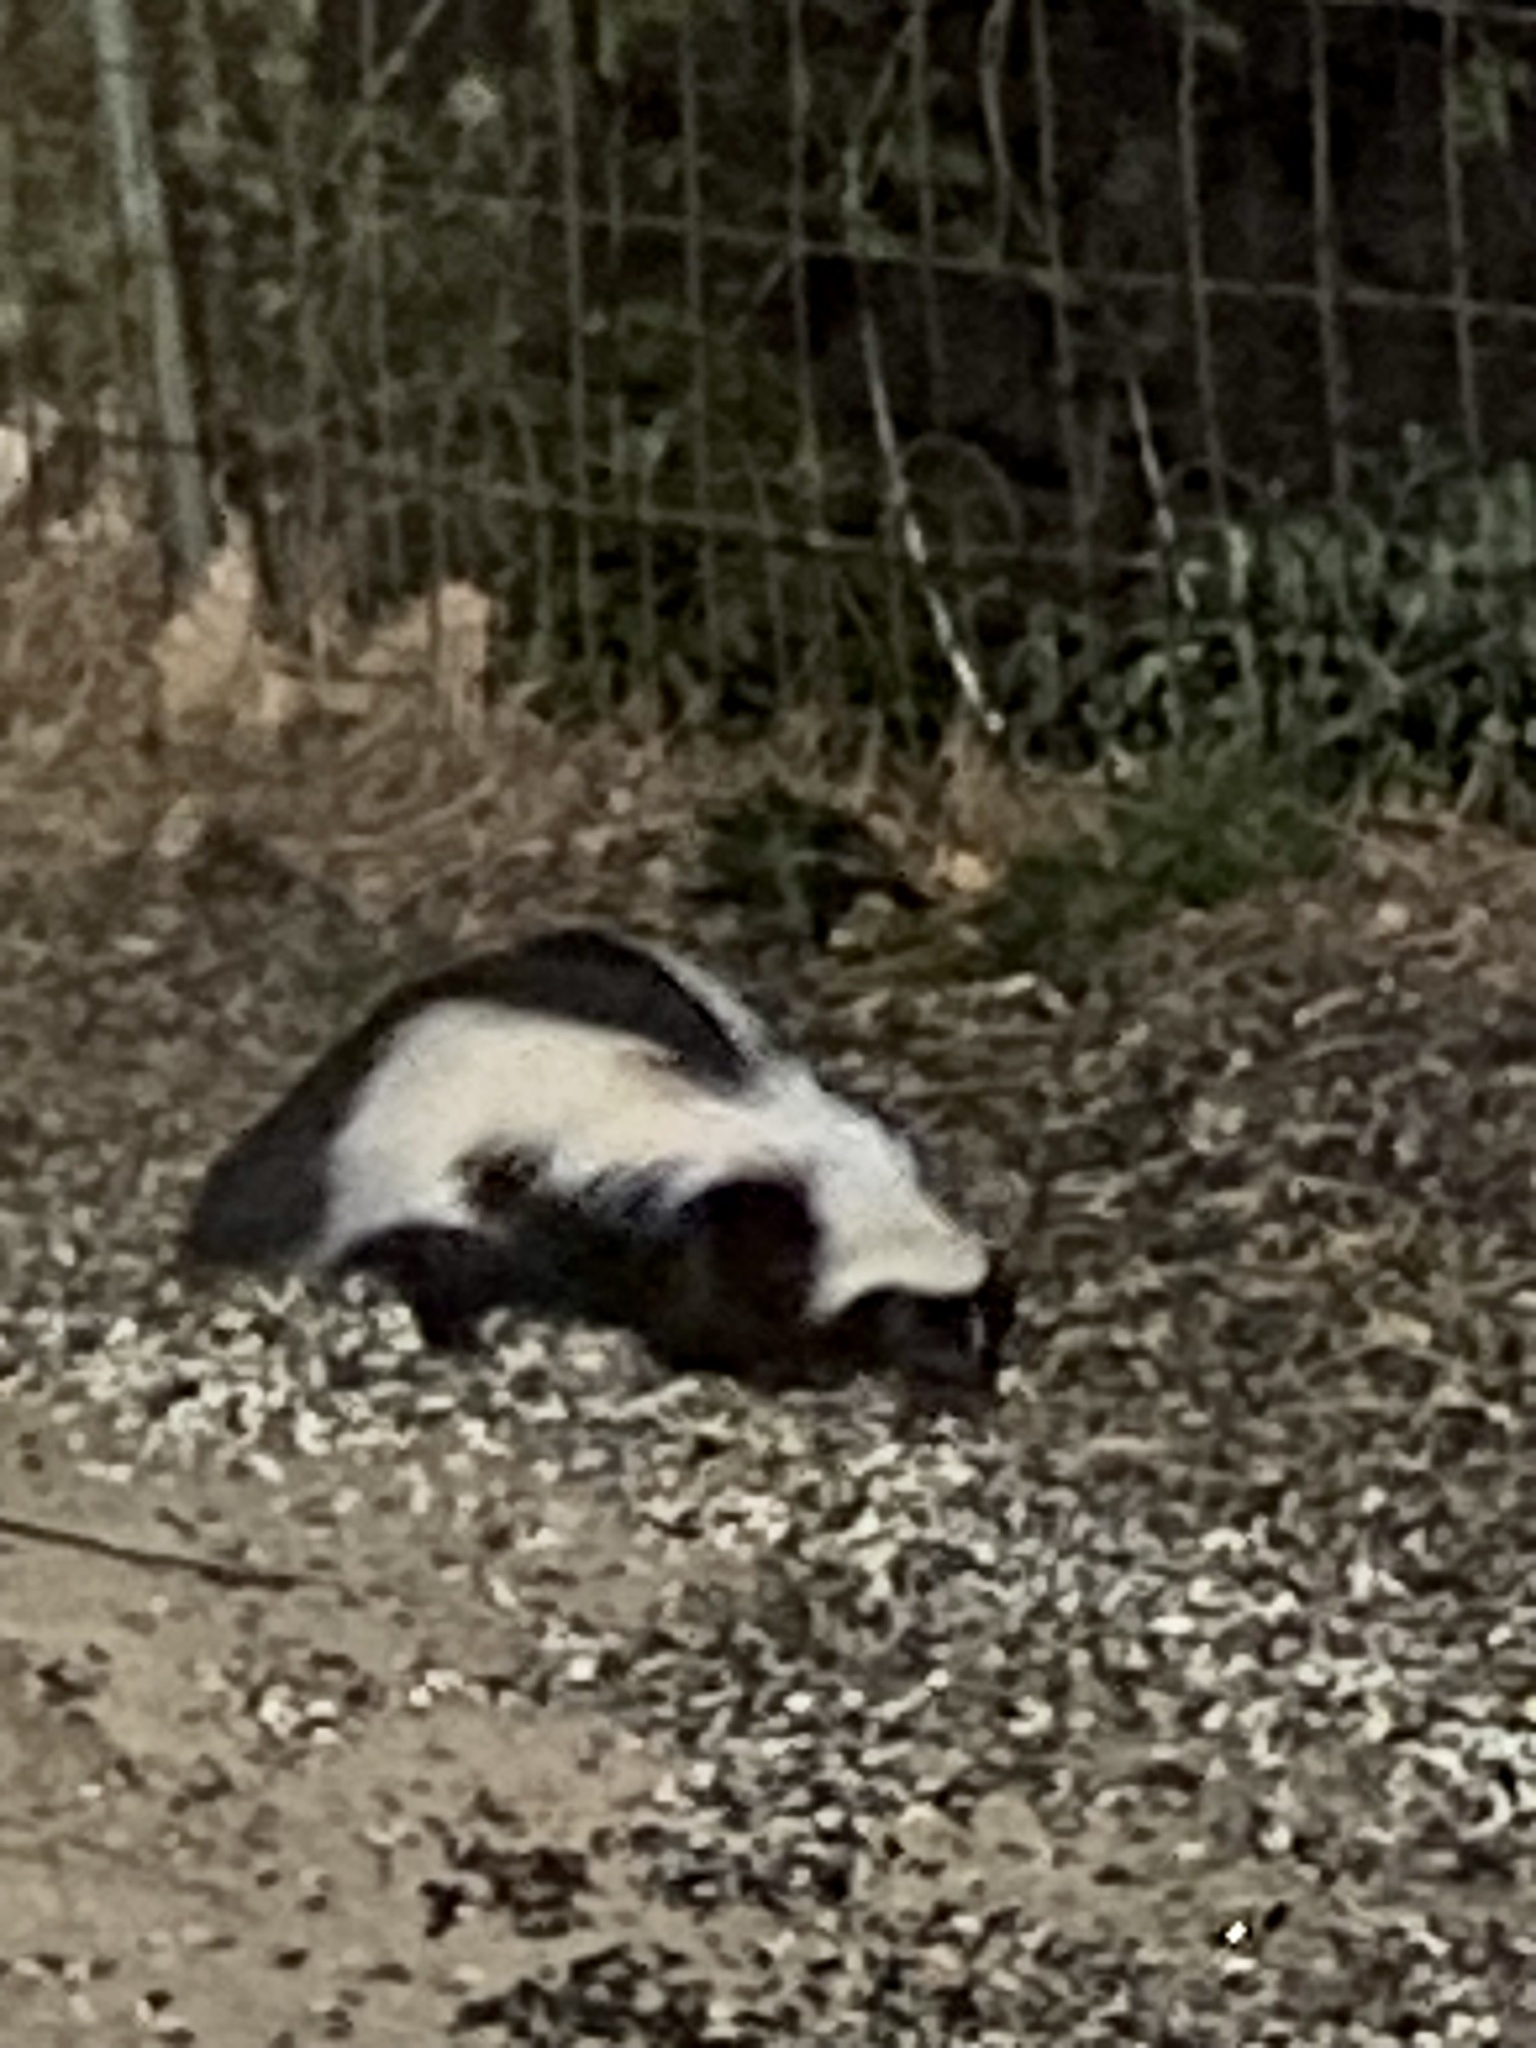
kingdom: Animalia
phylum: Chordata
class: Mammalia
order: Carnivora
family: Mephitidae
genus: Mephitis
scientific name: Mephitis mephitis
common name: Striped skunk
